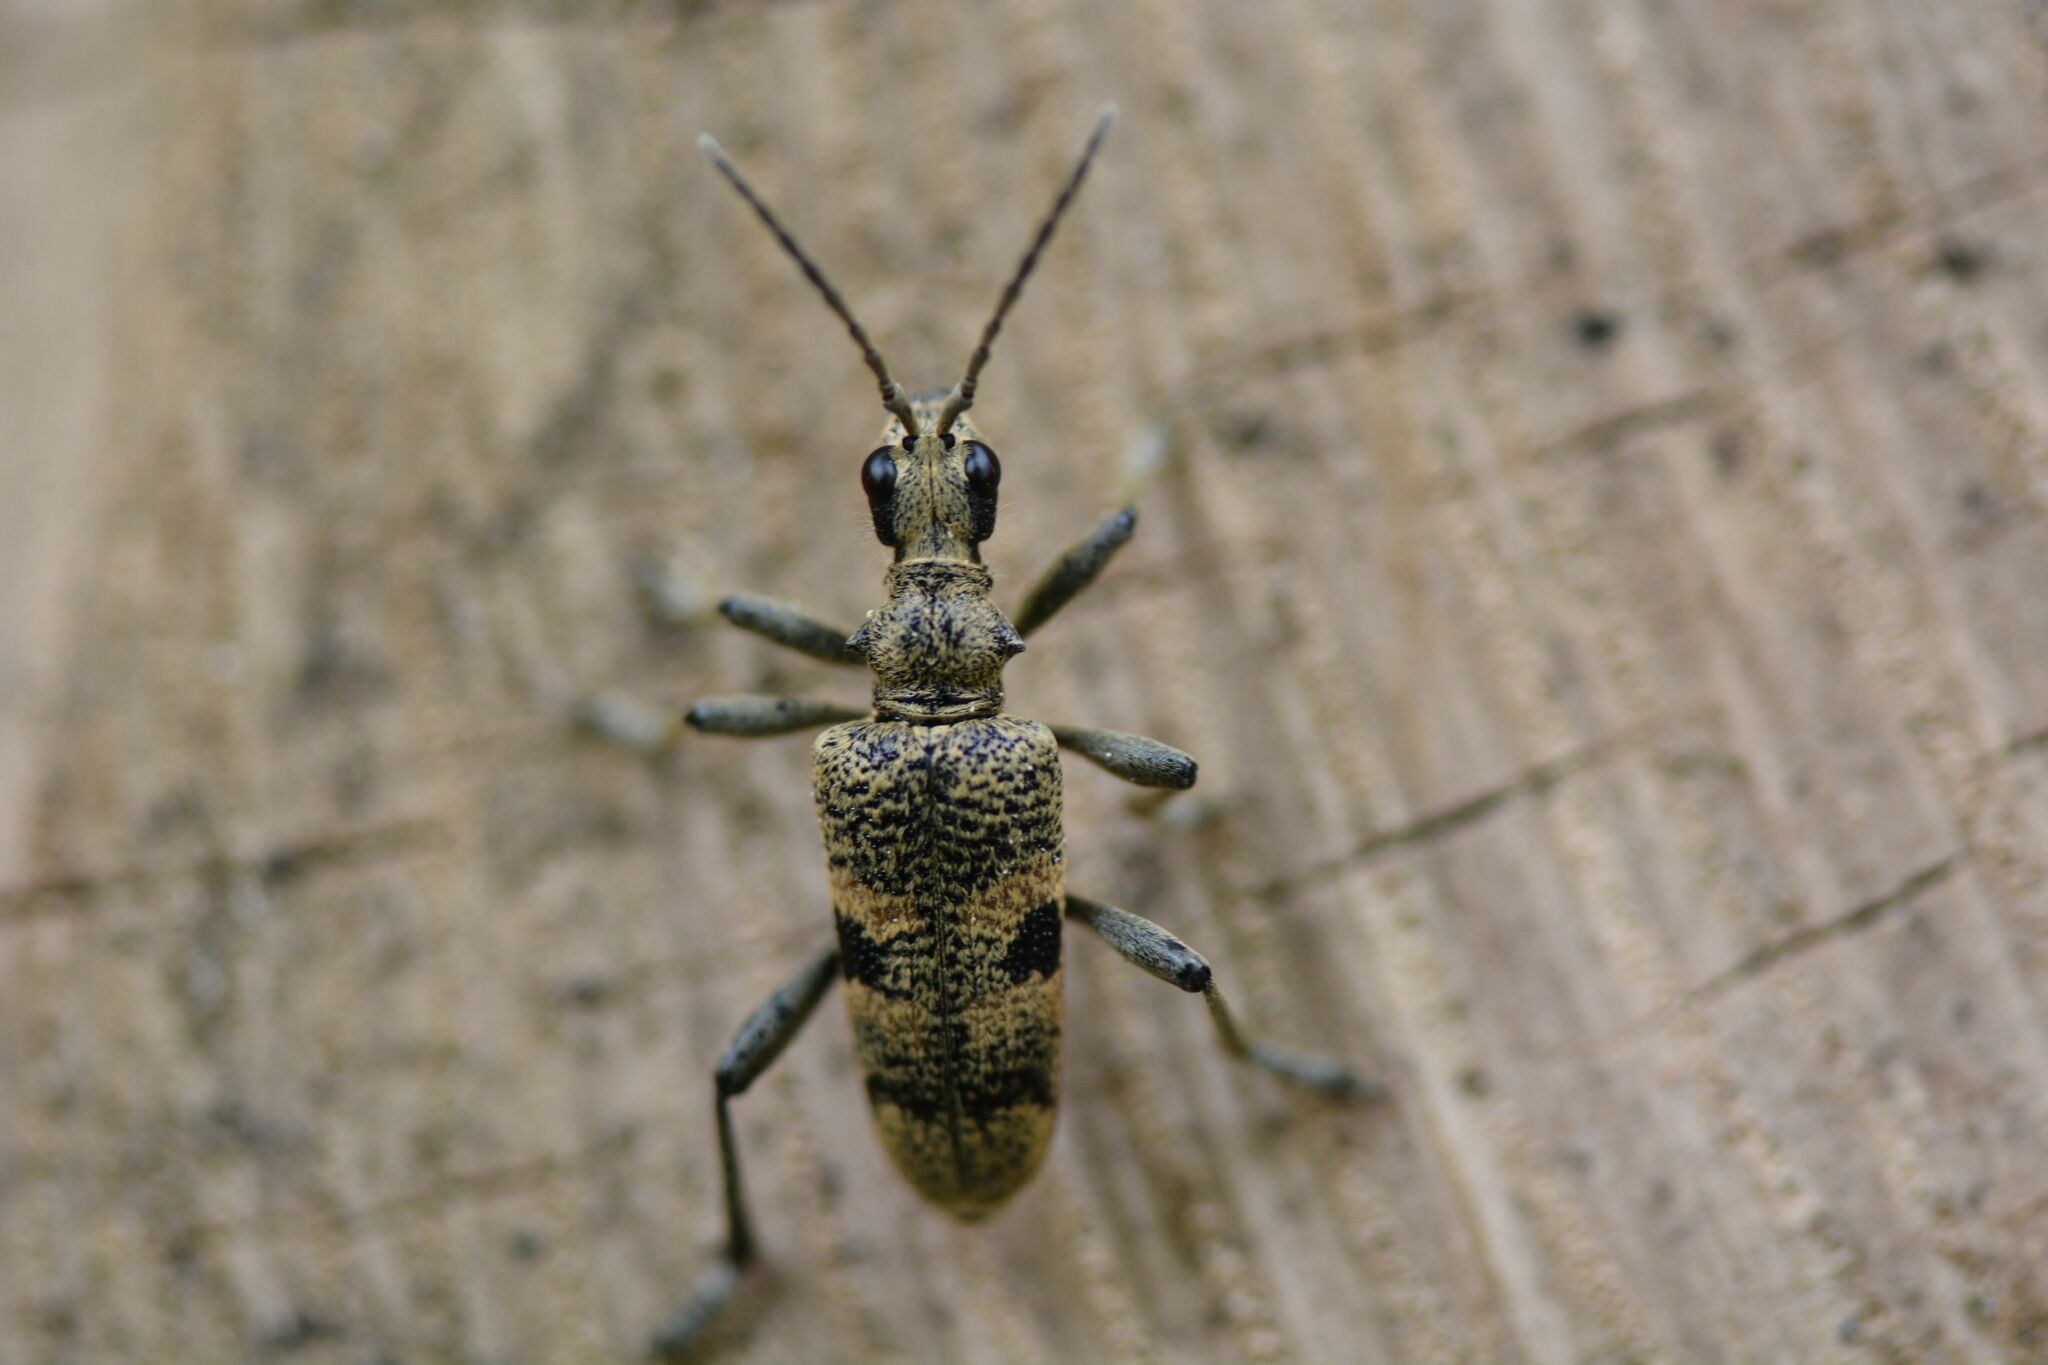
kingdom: Animalia
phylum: Arthropoda
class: Insecta
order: Coleoptera
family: Cerambycidae
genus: Rhagium
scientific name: Rhagium mordax
